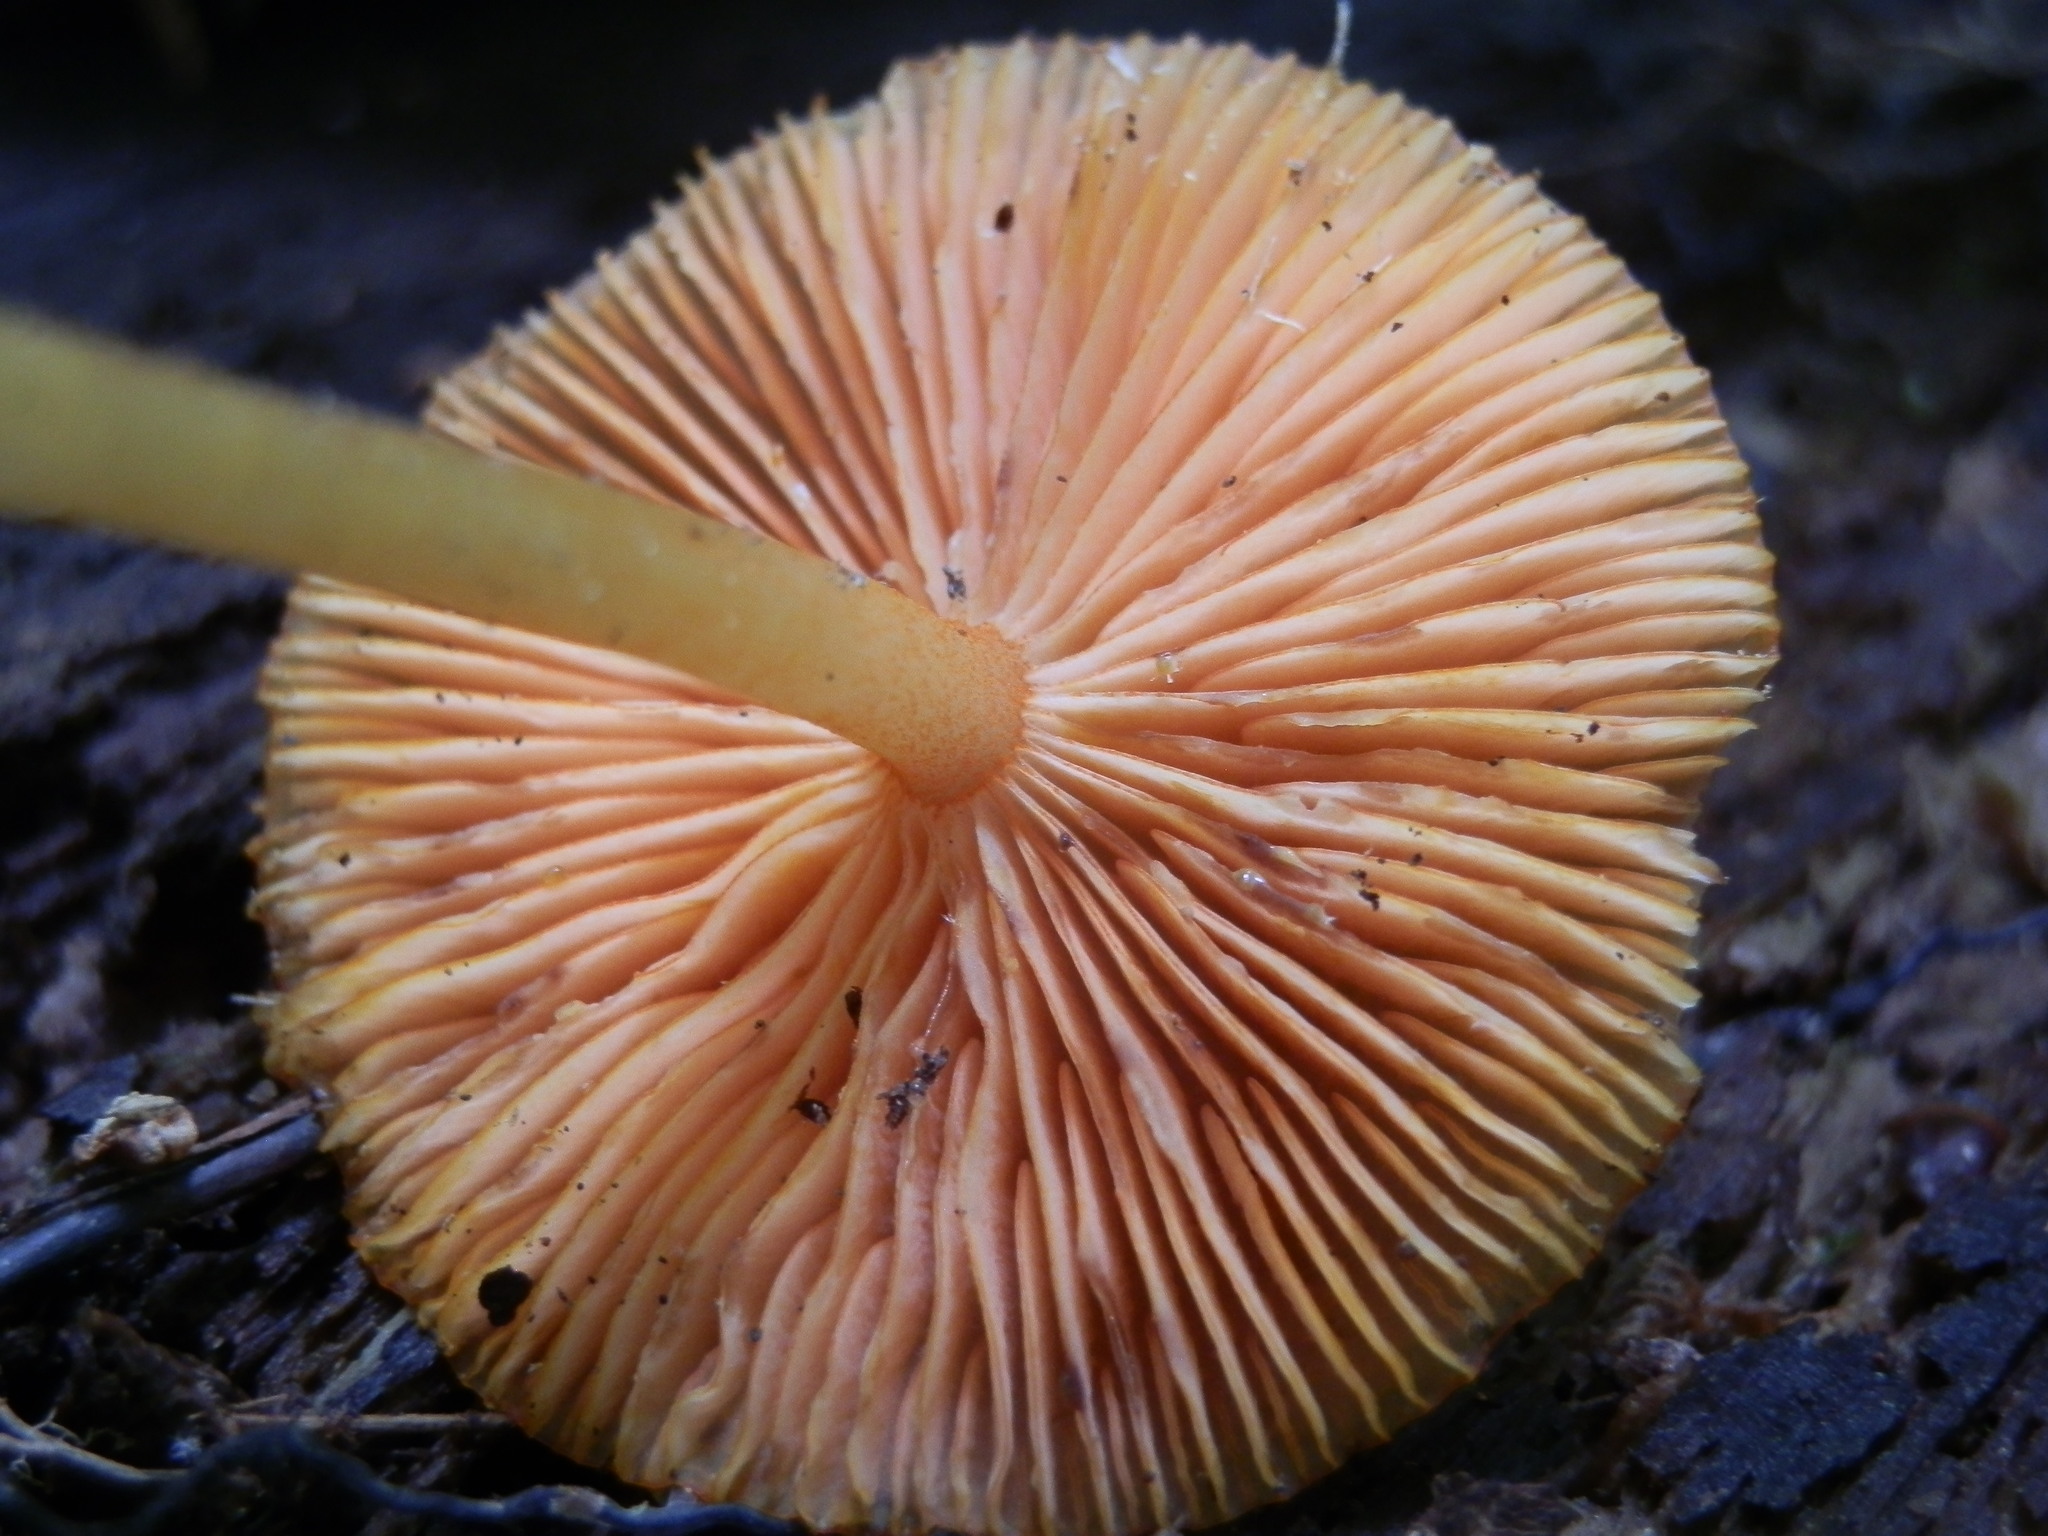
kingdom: Fungi
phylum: Basidiomycota
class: Agaricomycetes
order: Agaricales
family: Mycenaceae
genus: Mycena
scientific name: Mycena leaiana
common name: Orange mycena
